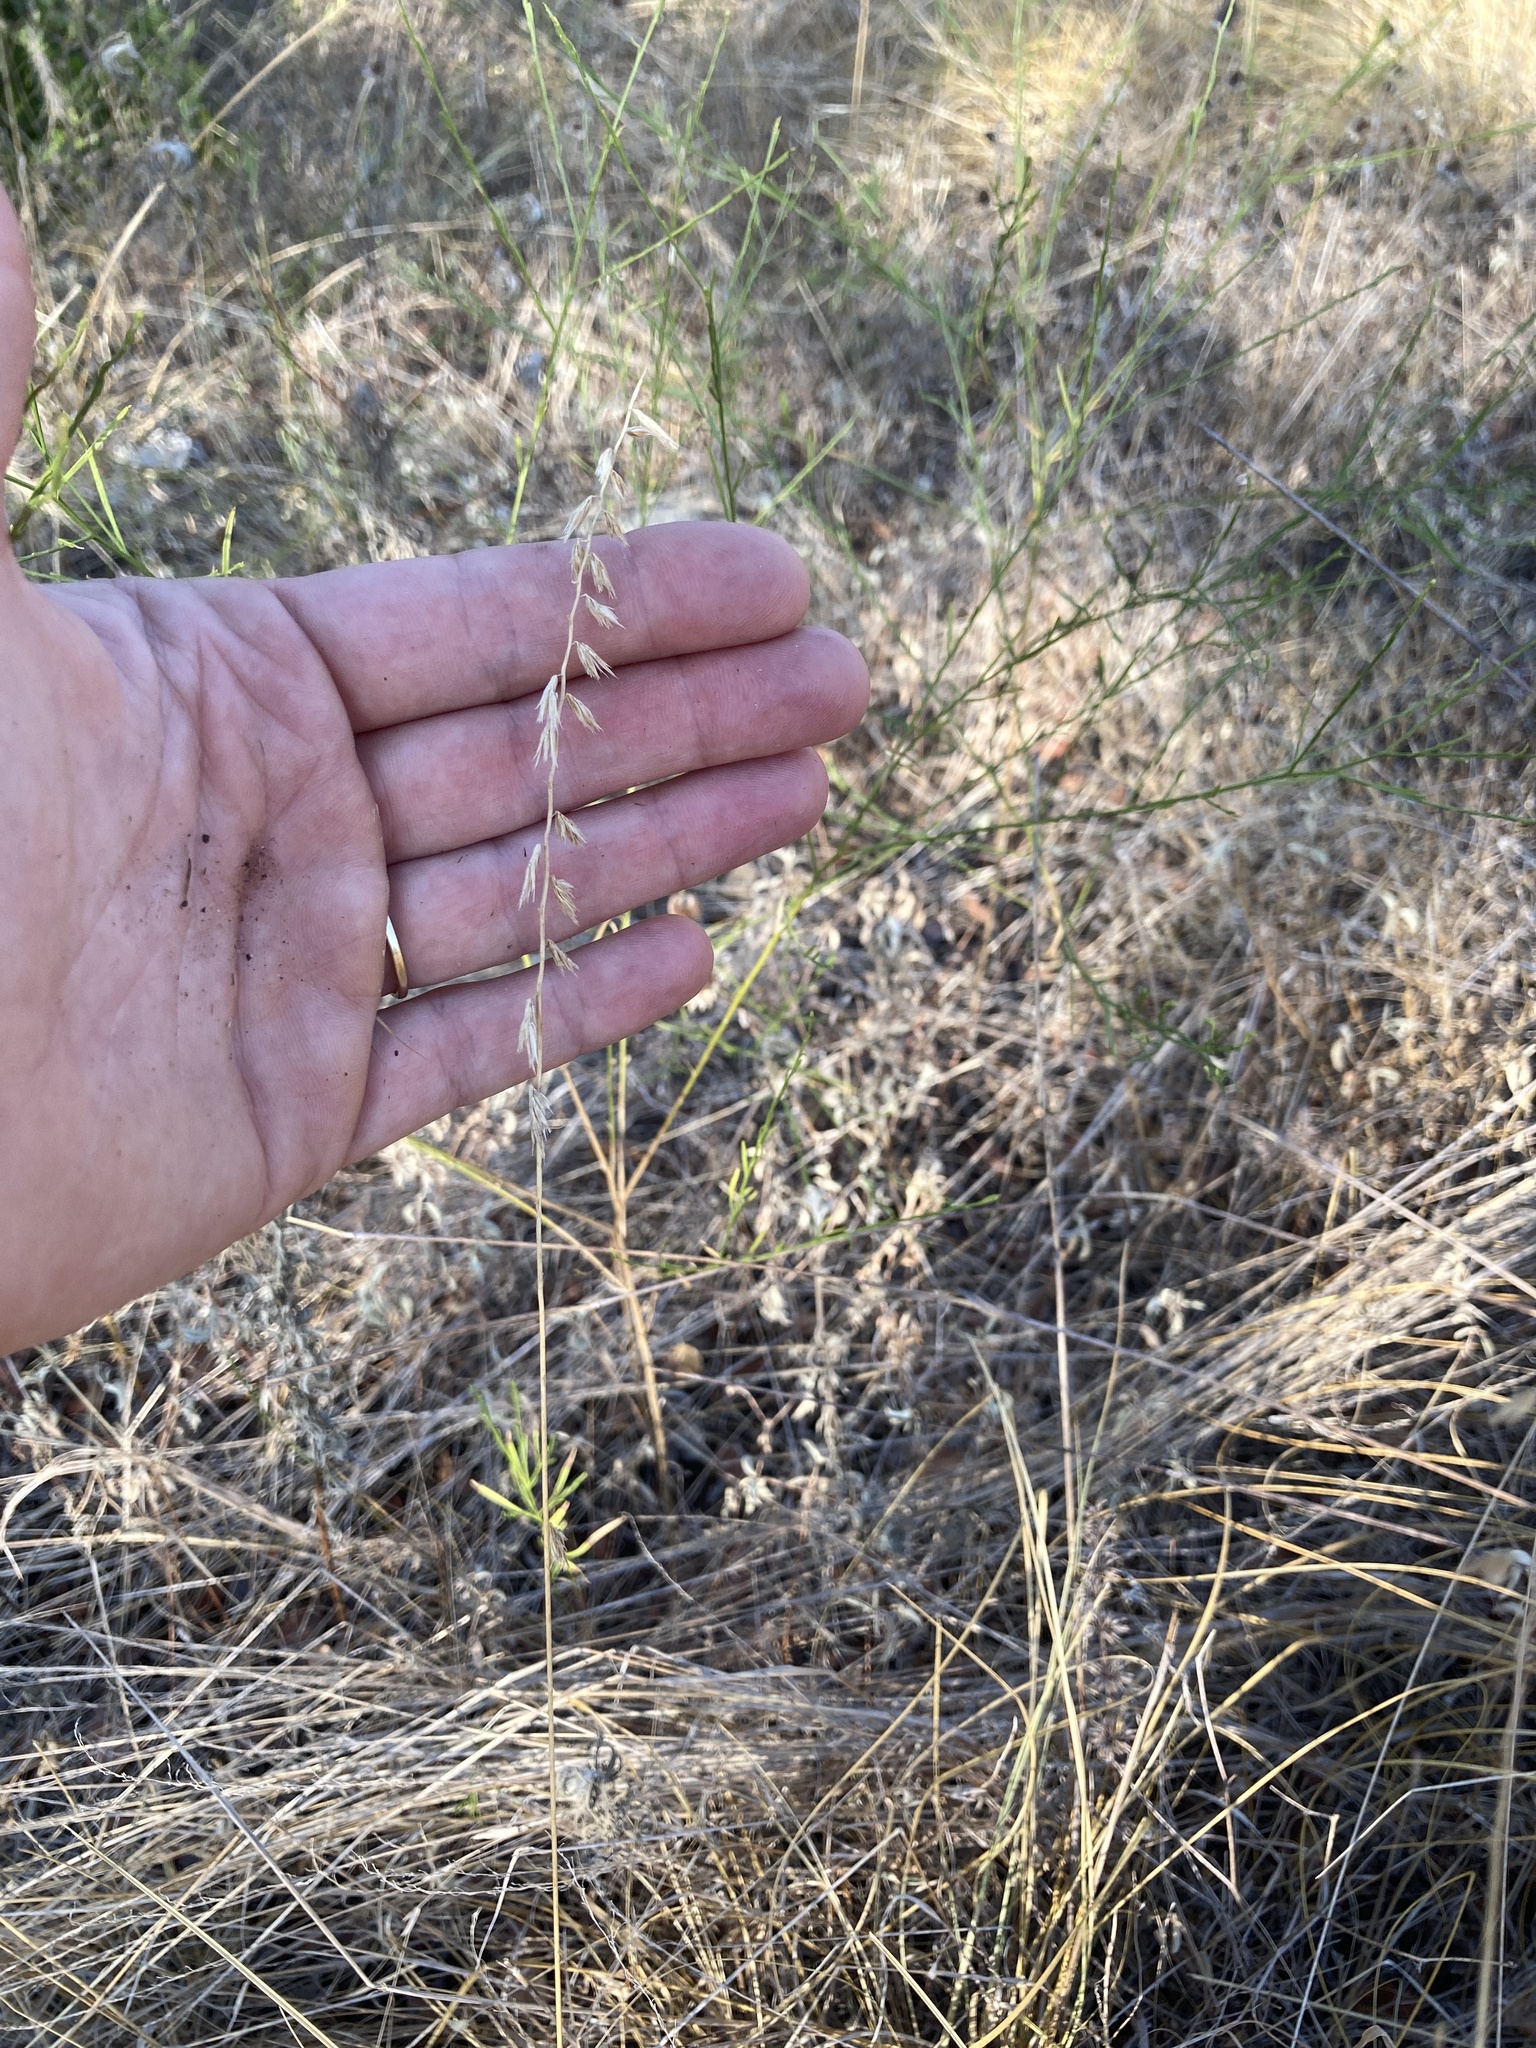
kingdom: Plantae
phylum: Tracheophyta
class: Liliopsida
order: Poales
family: Poaceae
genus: Bouteloua
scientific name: Bouteloua curtipendula
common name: Side-oats grama
